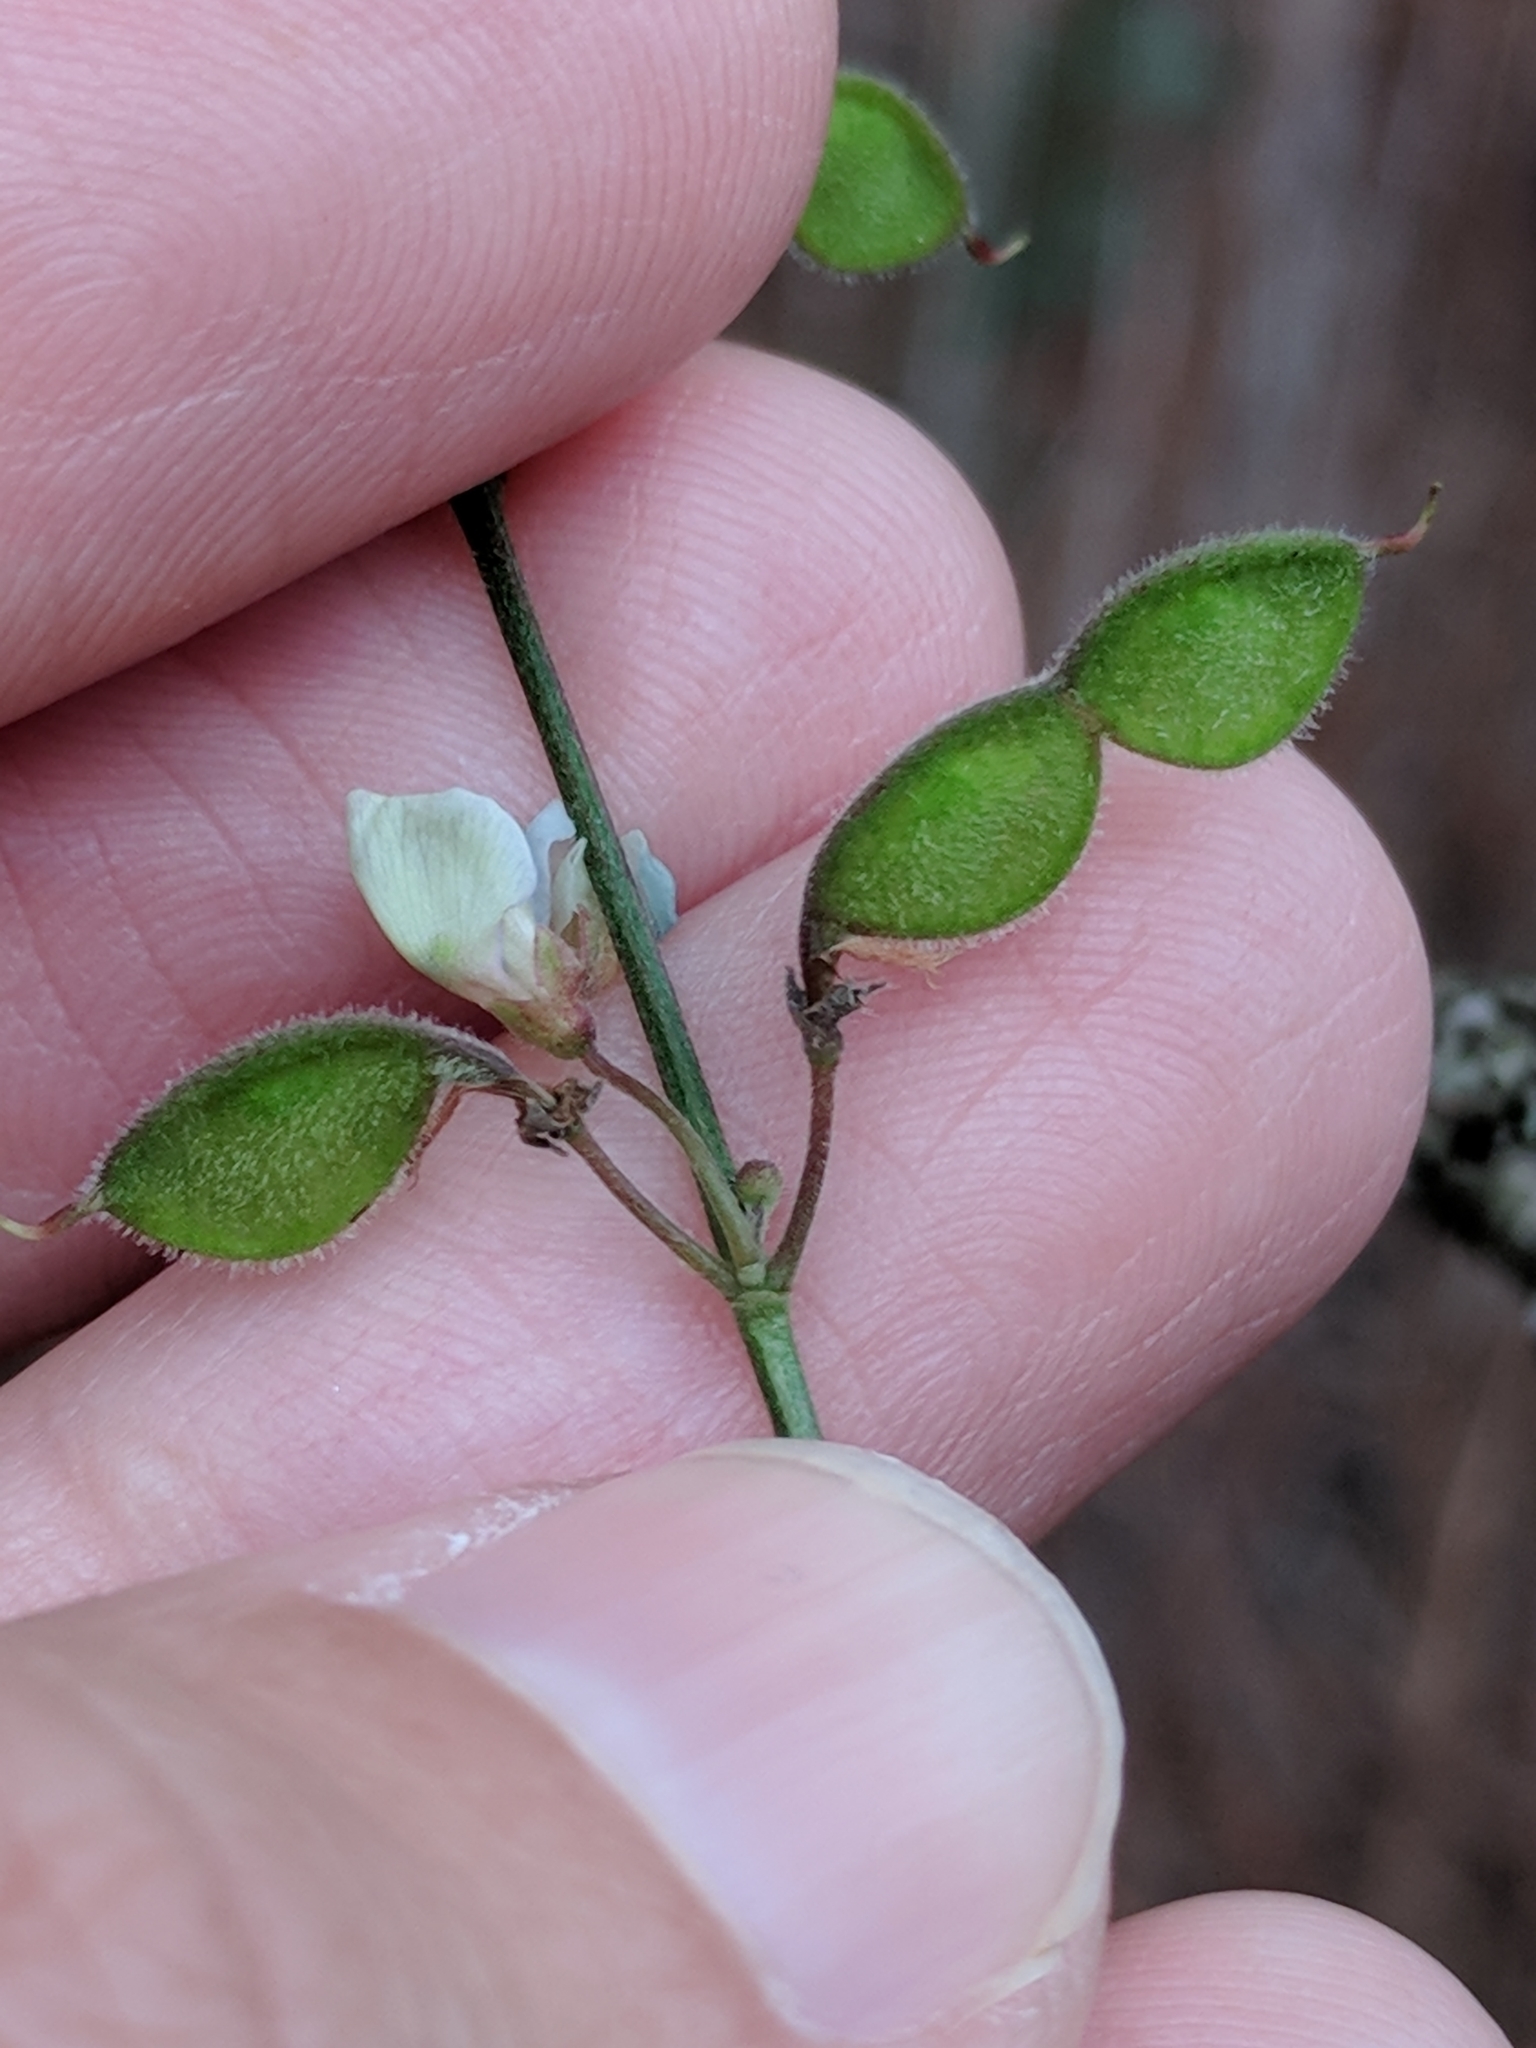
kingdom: Plantae
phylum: Tracheophyta
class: Magnoliopsida
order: Fabales
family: Fabaceae
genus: Desmodium
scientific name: Desmodium sessilifolium
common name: Sessile tick-clover
